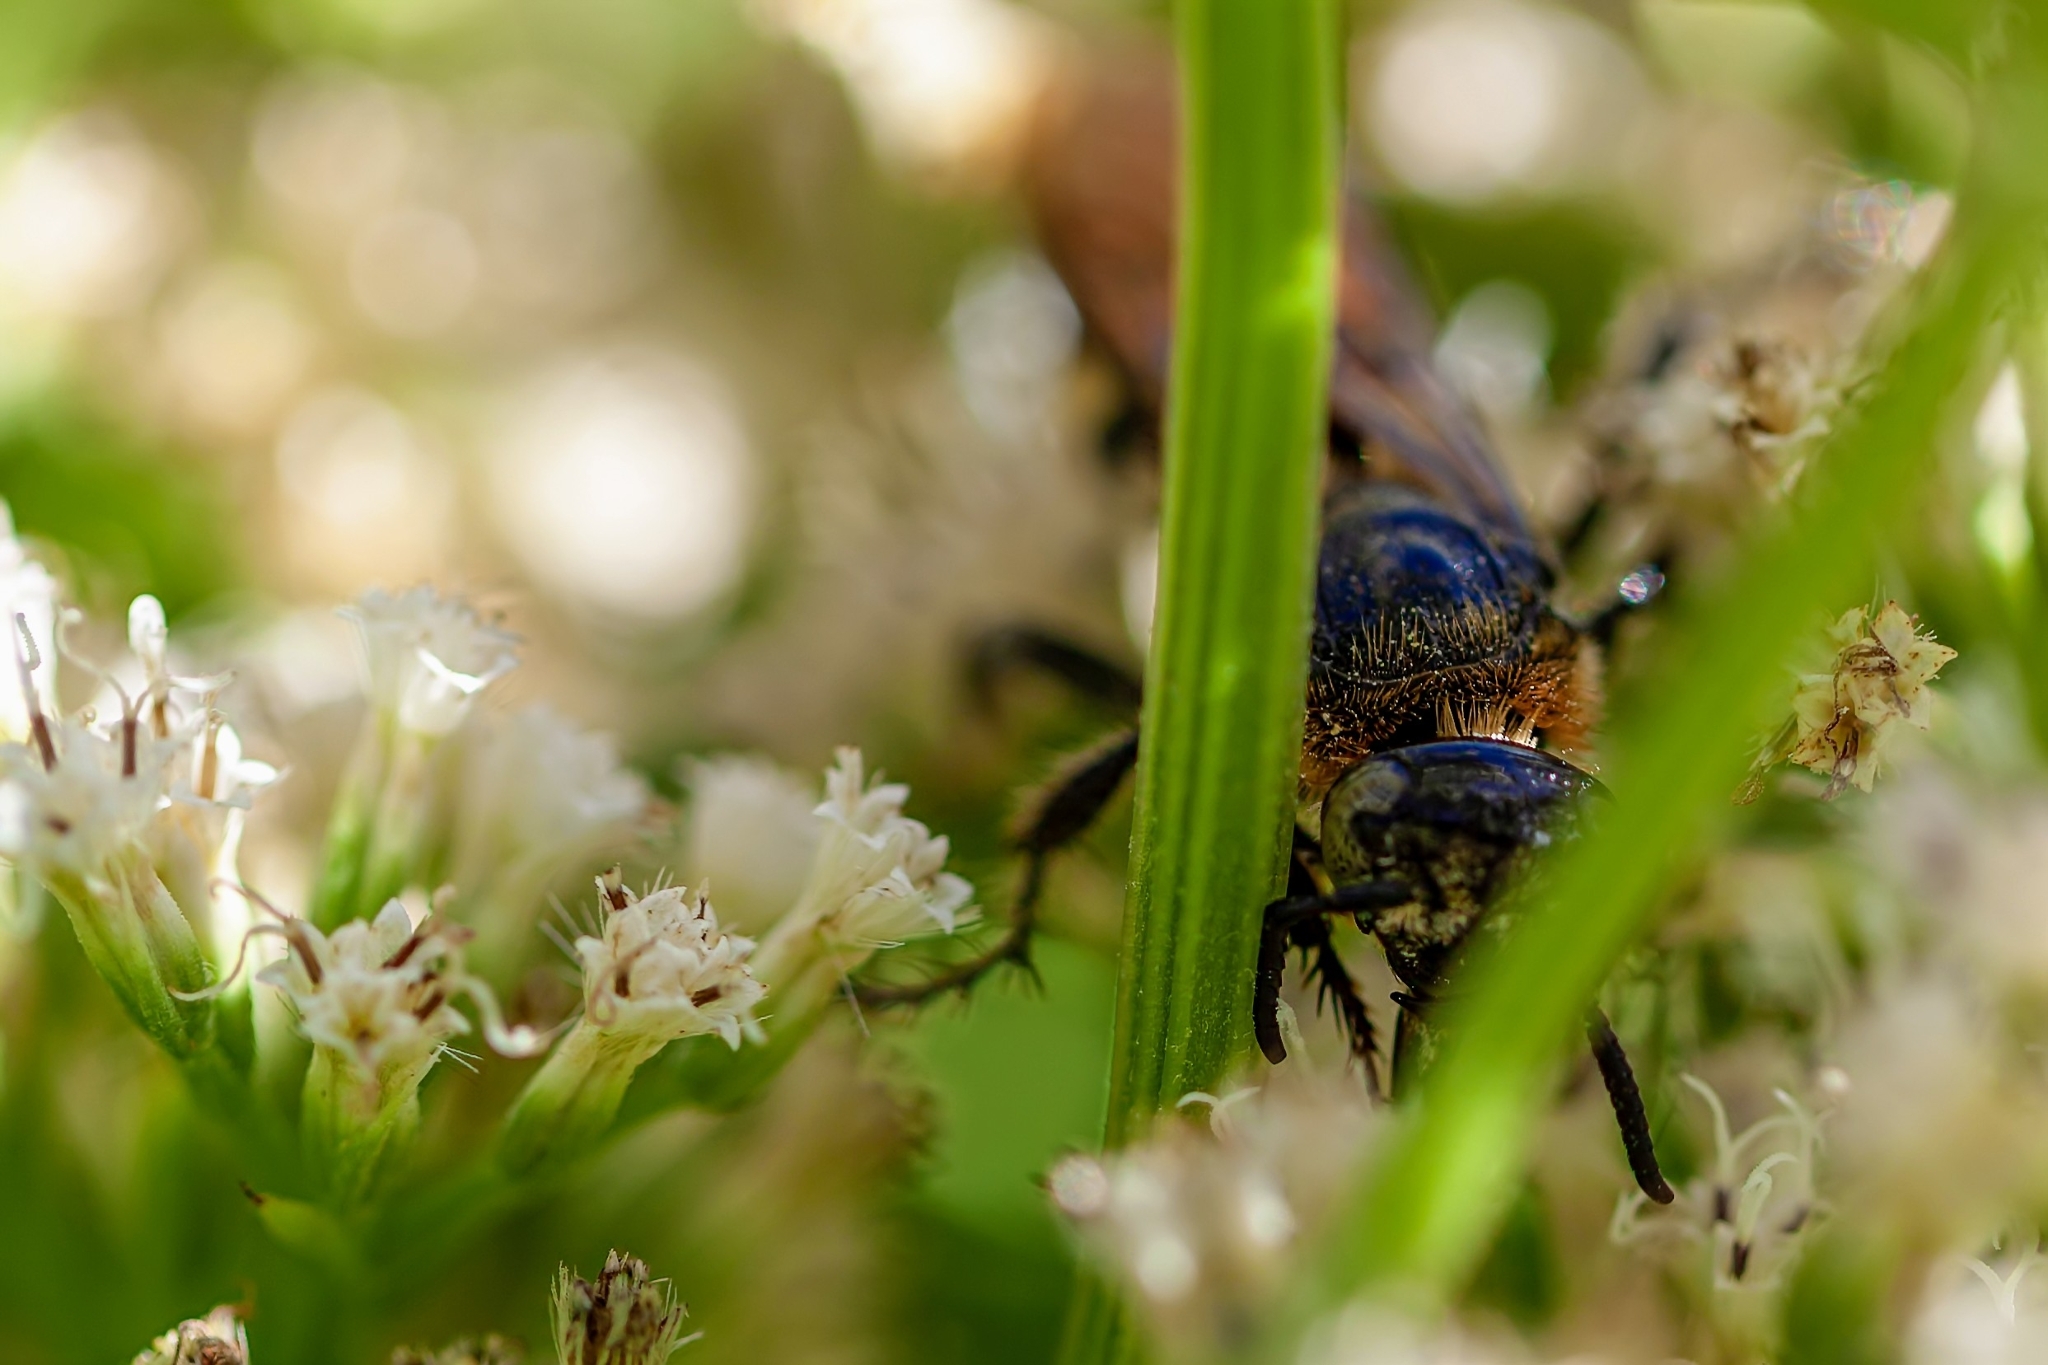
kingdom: Animalia
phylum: Arthropoda
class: Insecta
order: Hymenoptera
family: Scoliidae
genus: Dielis
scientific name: Dielis
